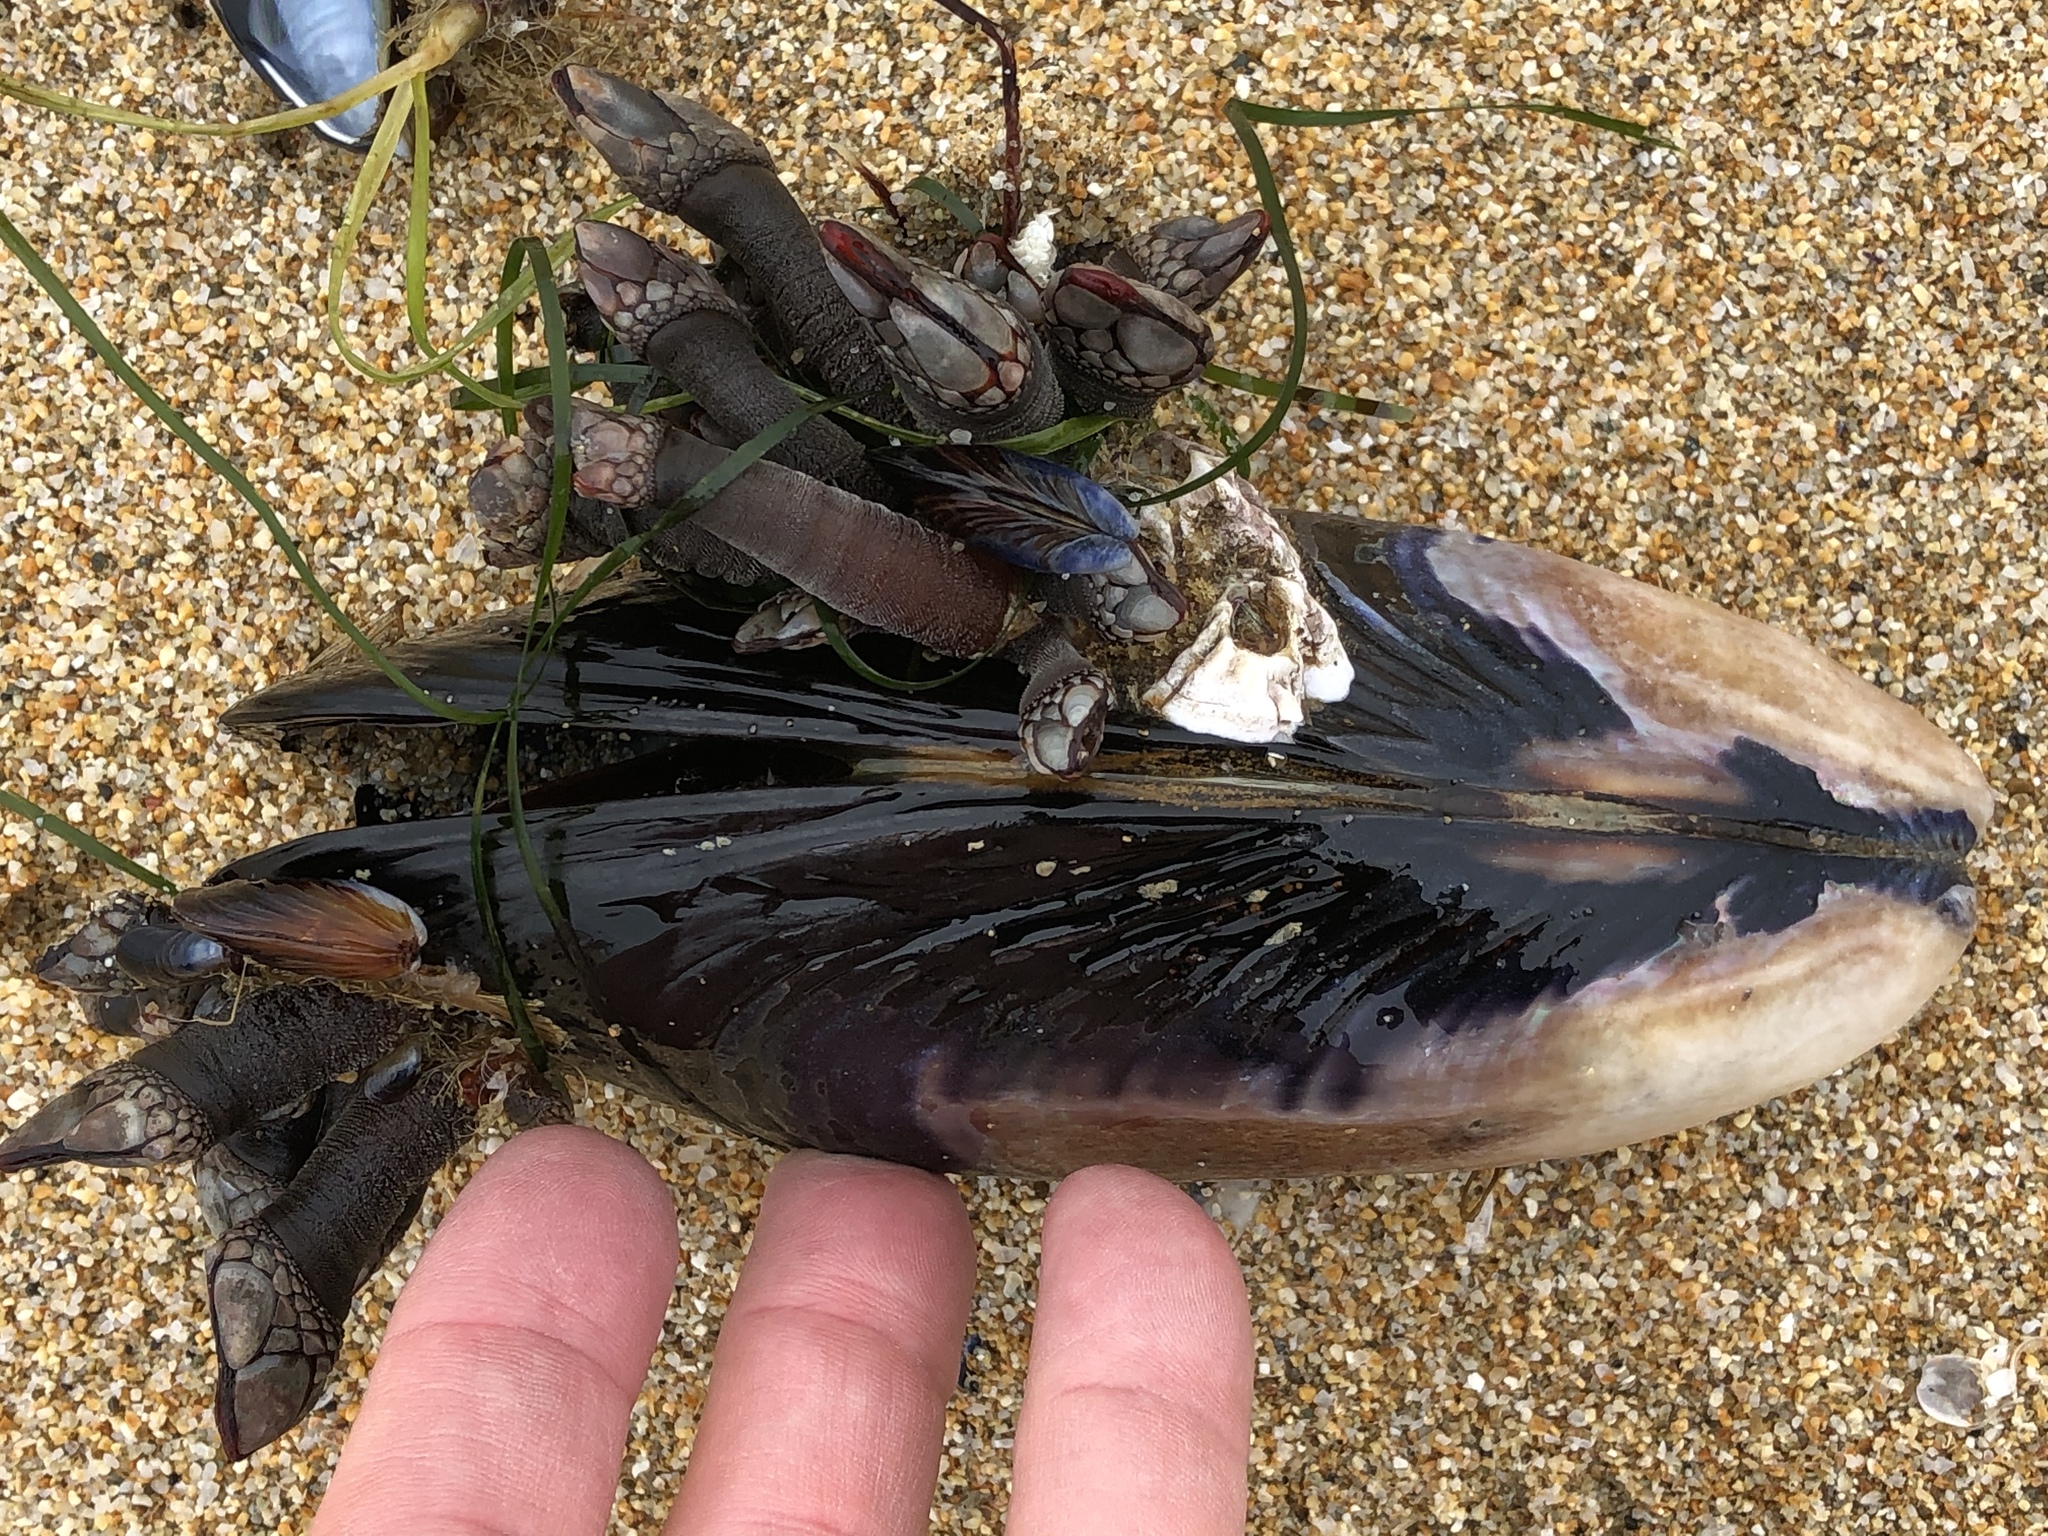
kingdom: Animalia
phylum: Mollusca
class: Bivalvia
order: Mytilida
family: Mytilidae
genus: Mytilus
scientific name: Mytilus californianus
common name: California mussel
